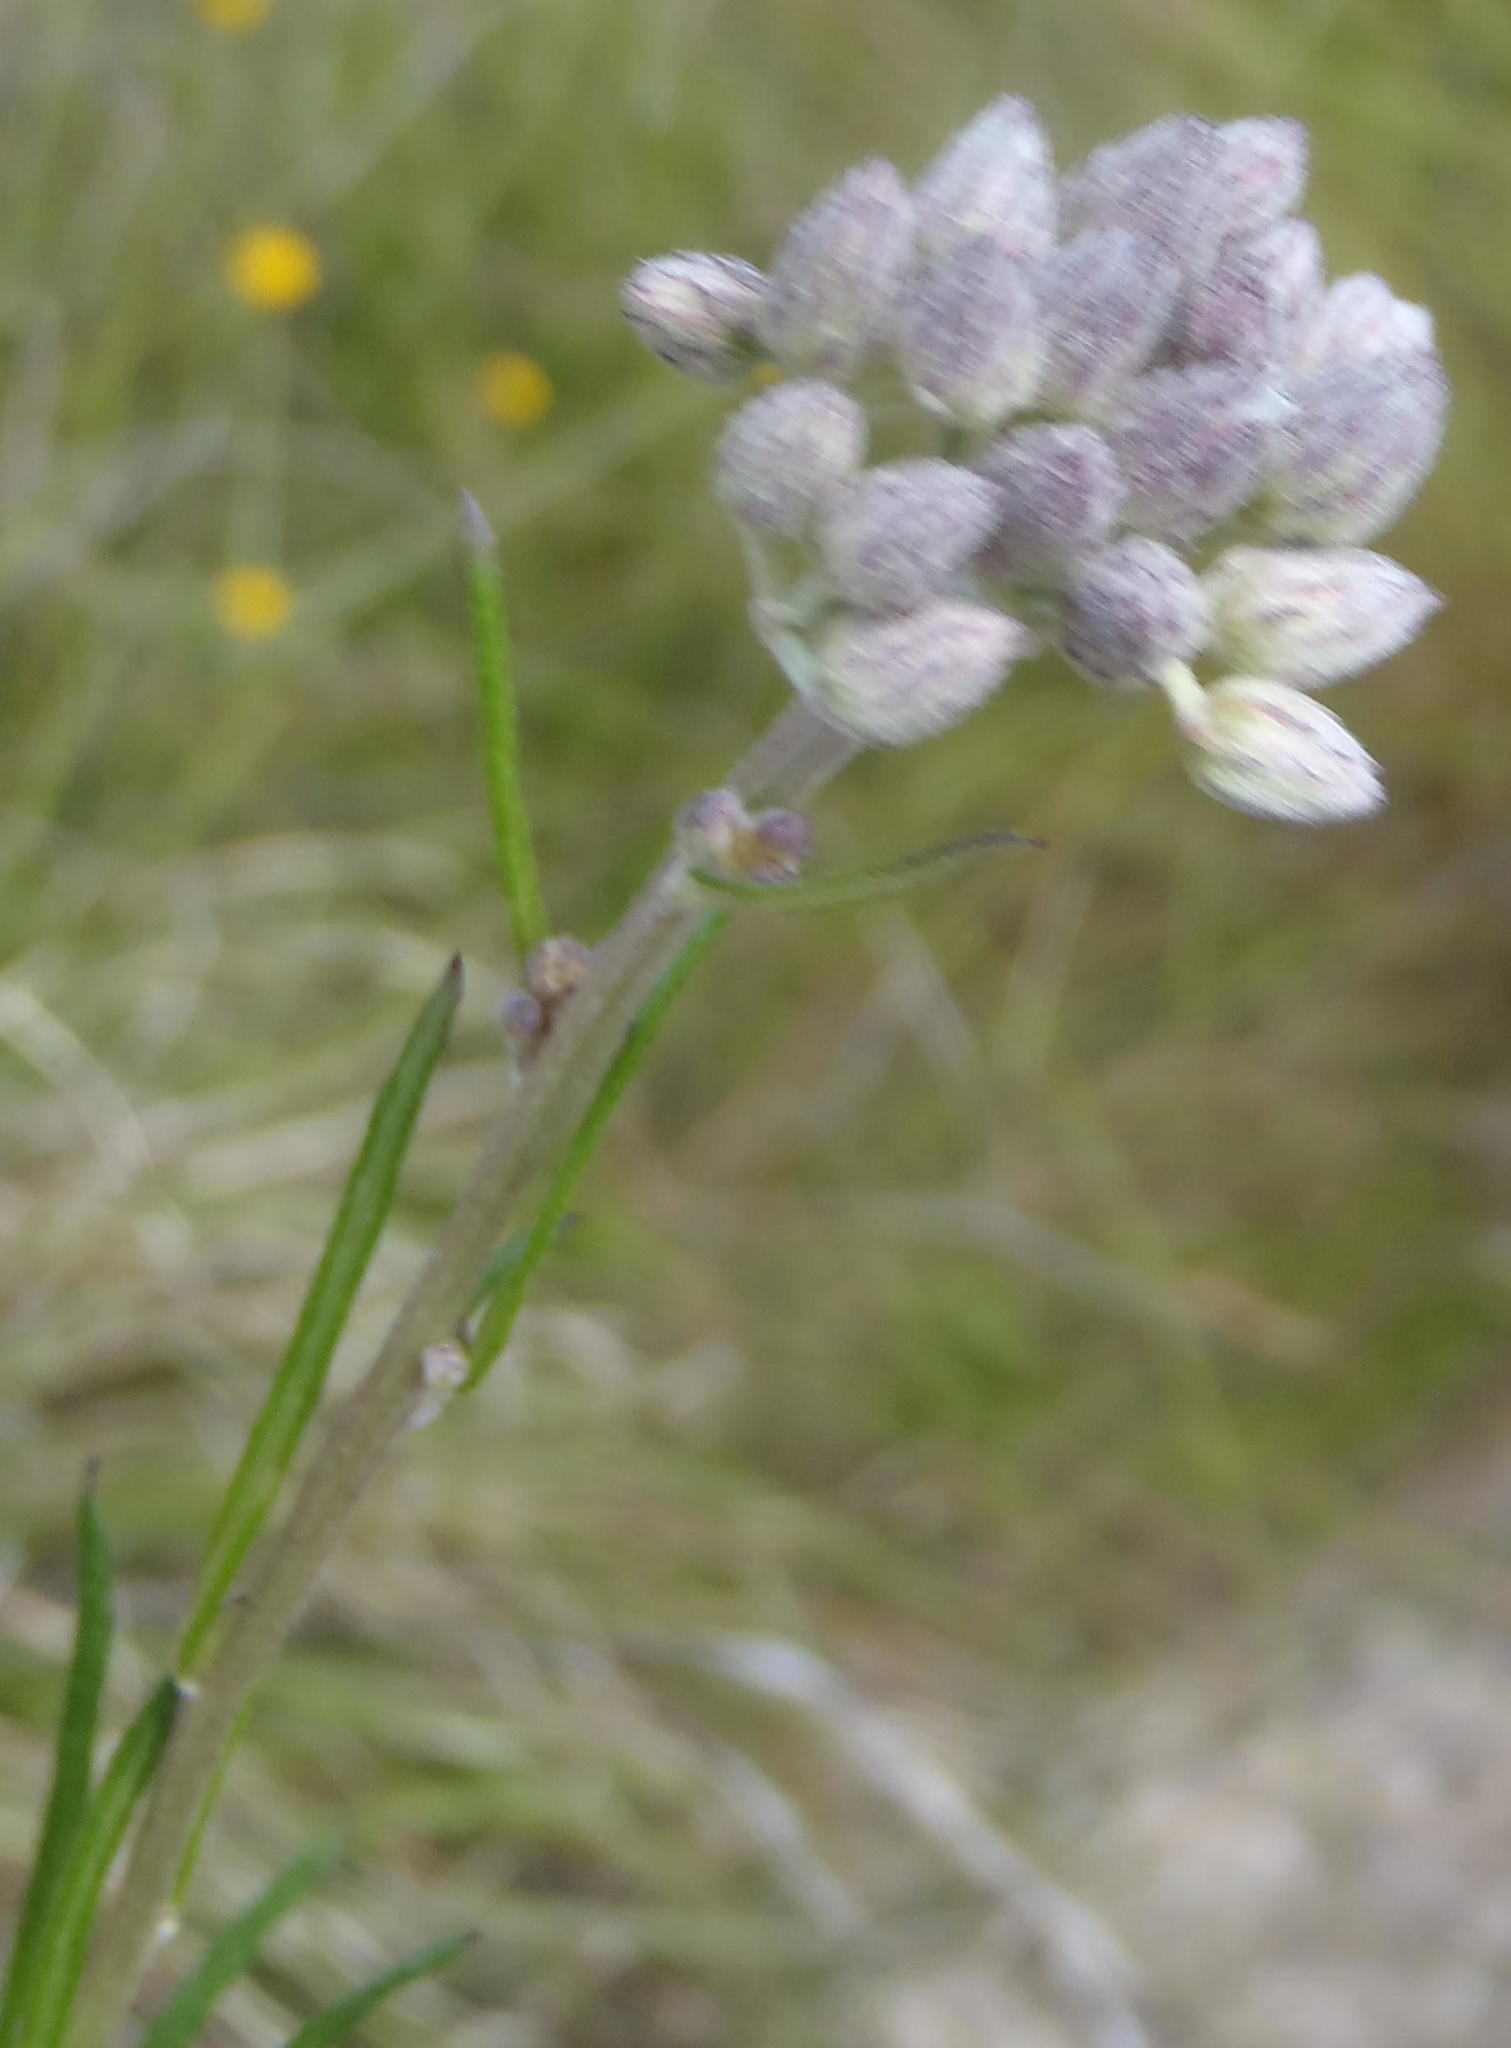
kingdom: Plantae
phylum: Tracheophyta
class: Magnoliopsida
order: Asterales
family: Asteraceae
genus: Hilliardiella
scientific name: Hilliardiella capensis
